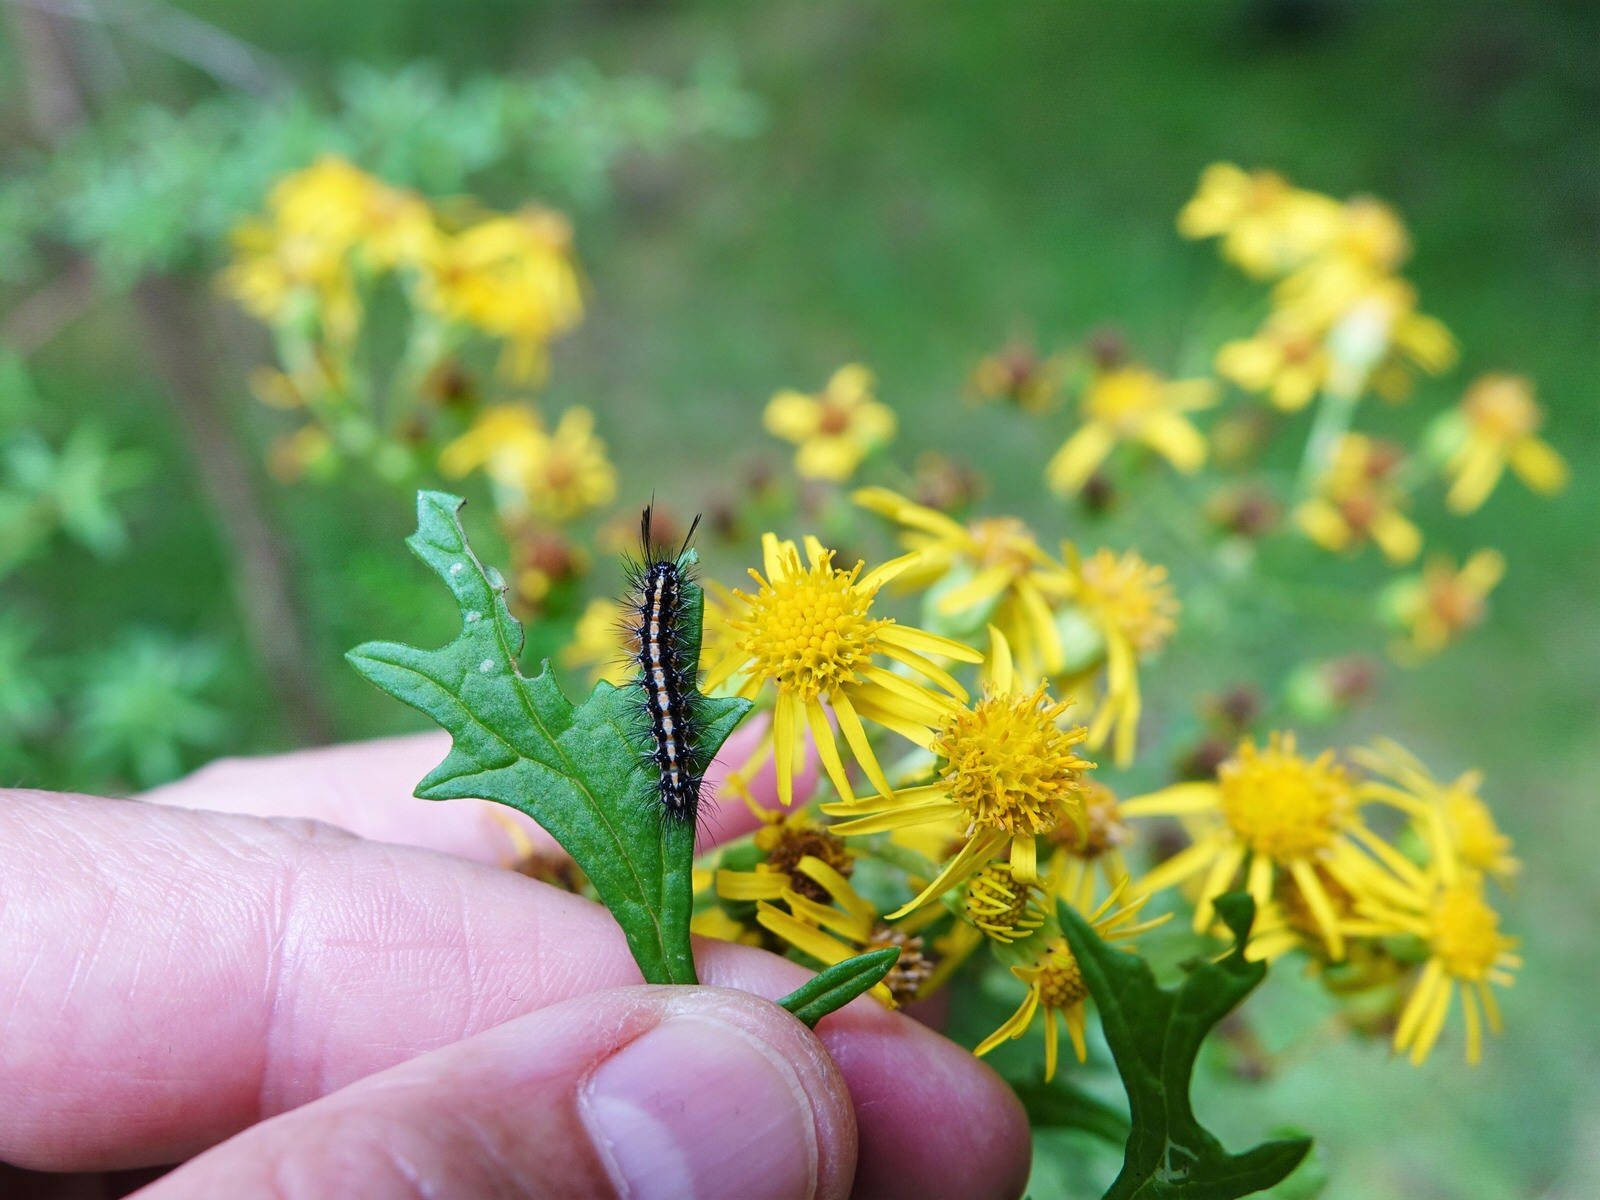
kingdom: Animalia
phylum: Arthropoda
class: Insecta
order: Lepidoptera
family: Erebidae
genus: Nyctemera
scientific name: Nyctemera amicus
